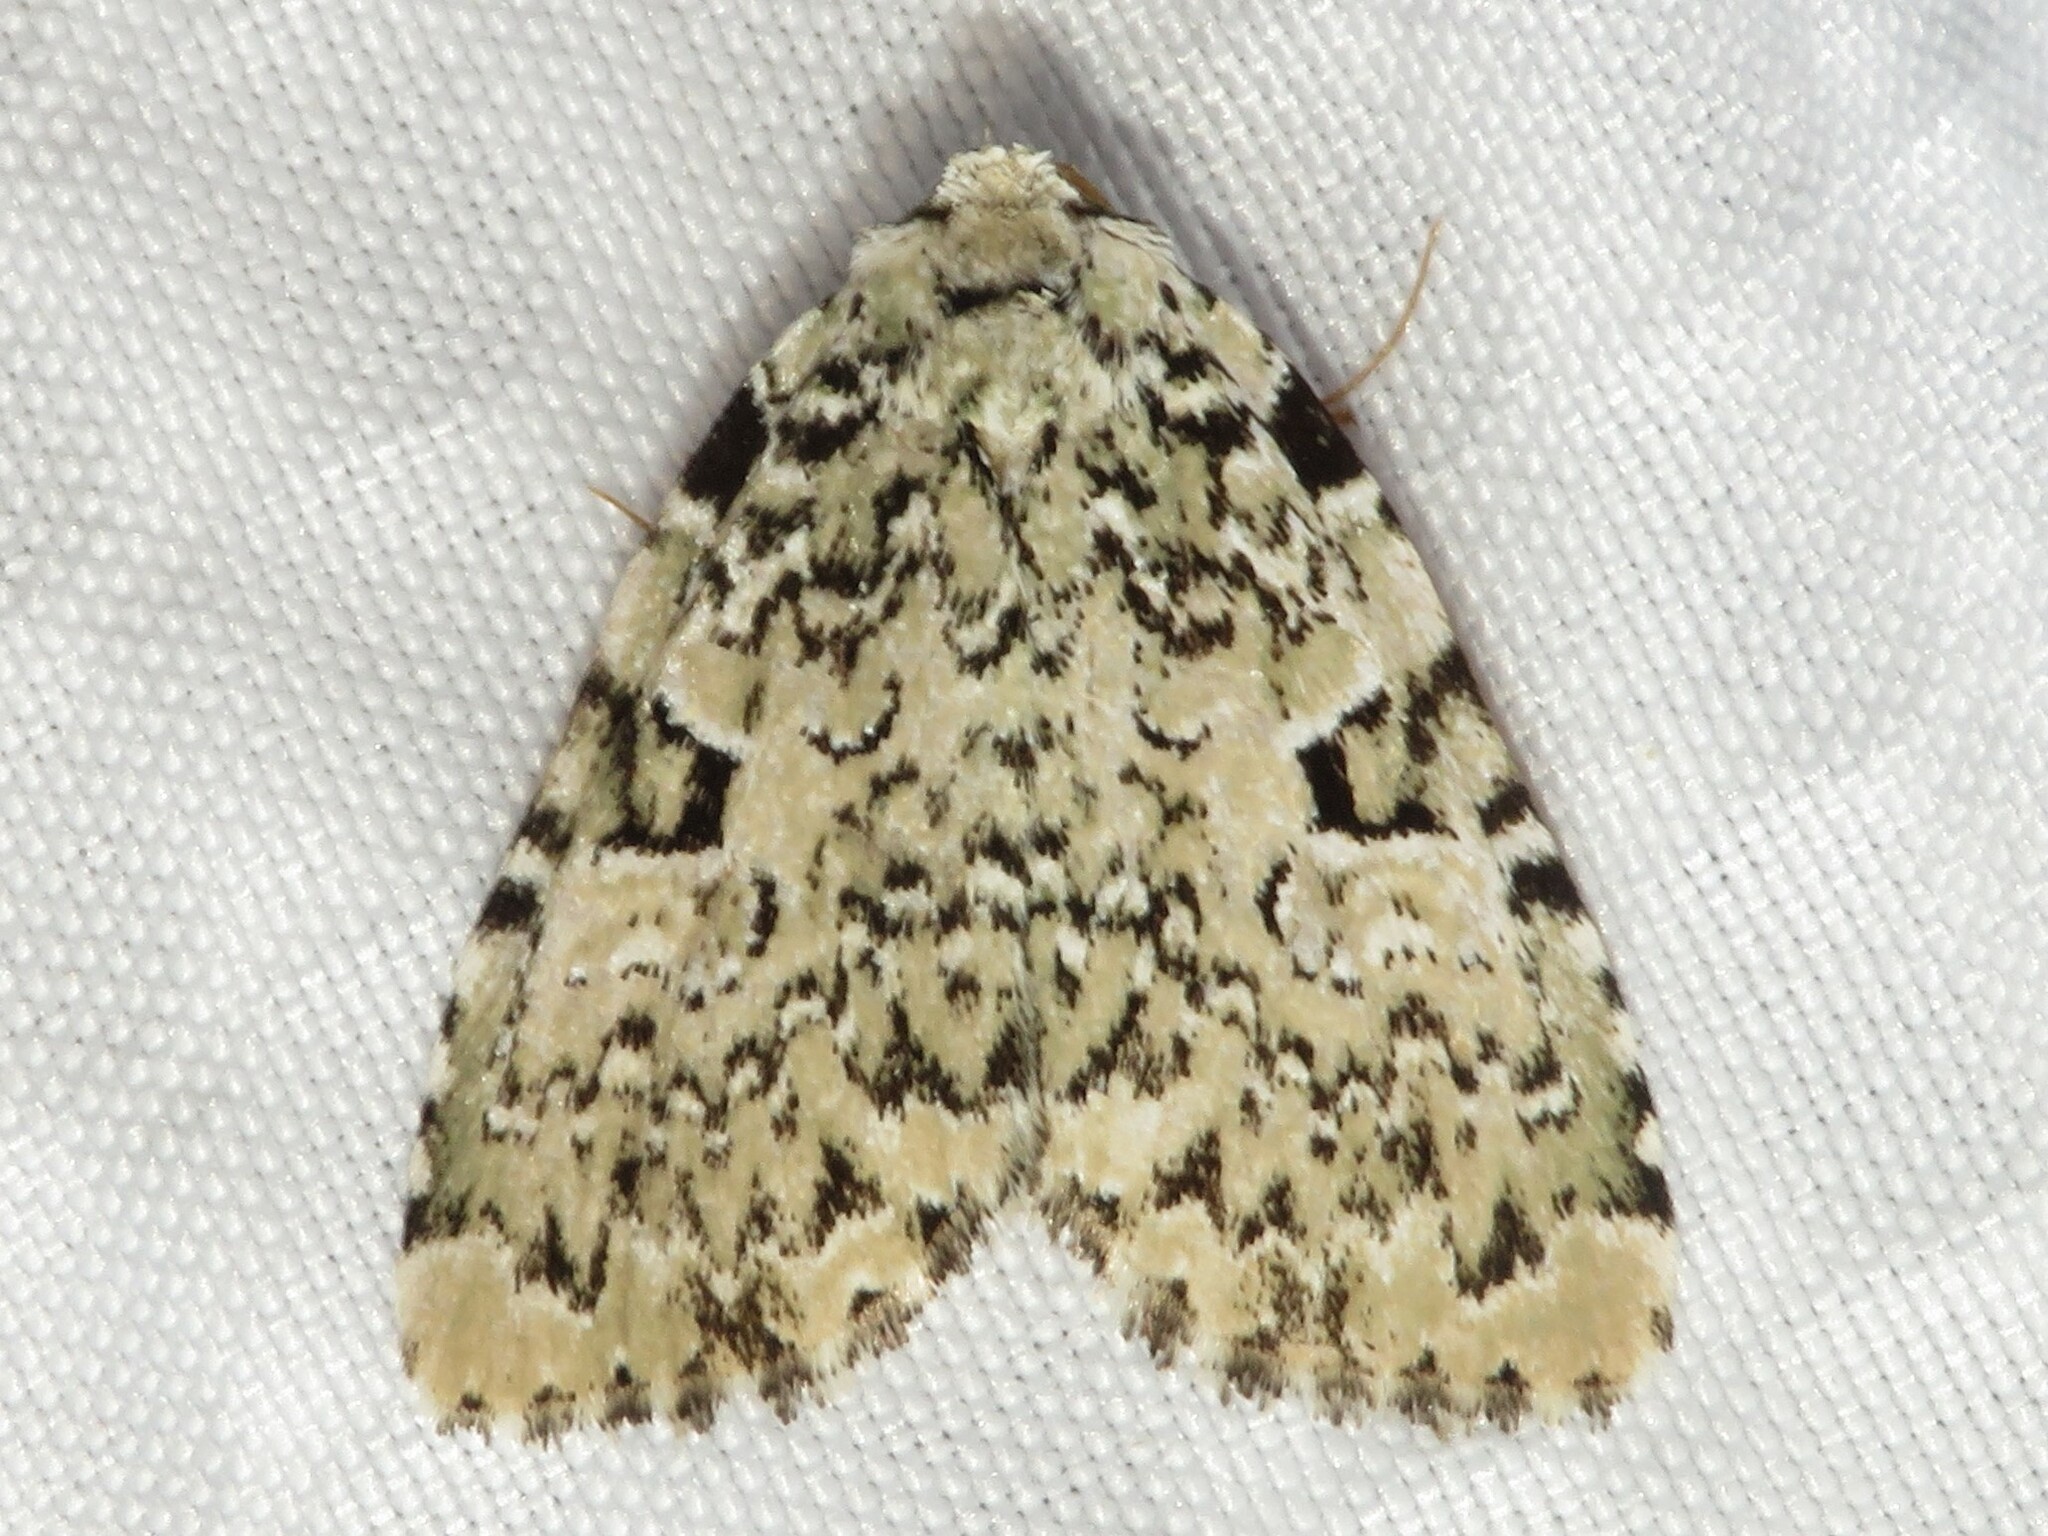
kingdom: Animalia
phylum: Arthropoda
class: Insecta
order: Lepidoptera
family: Noctuidae
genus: Leuconycta
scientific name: Leuconycta diphteroides
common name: Green leuconycta moth
